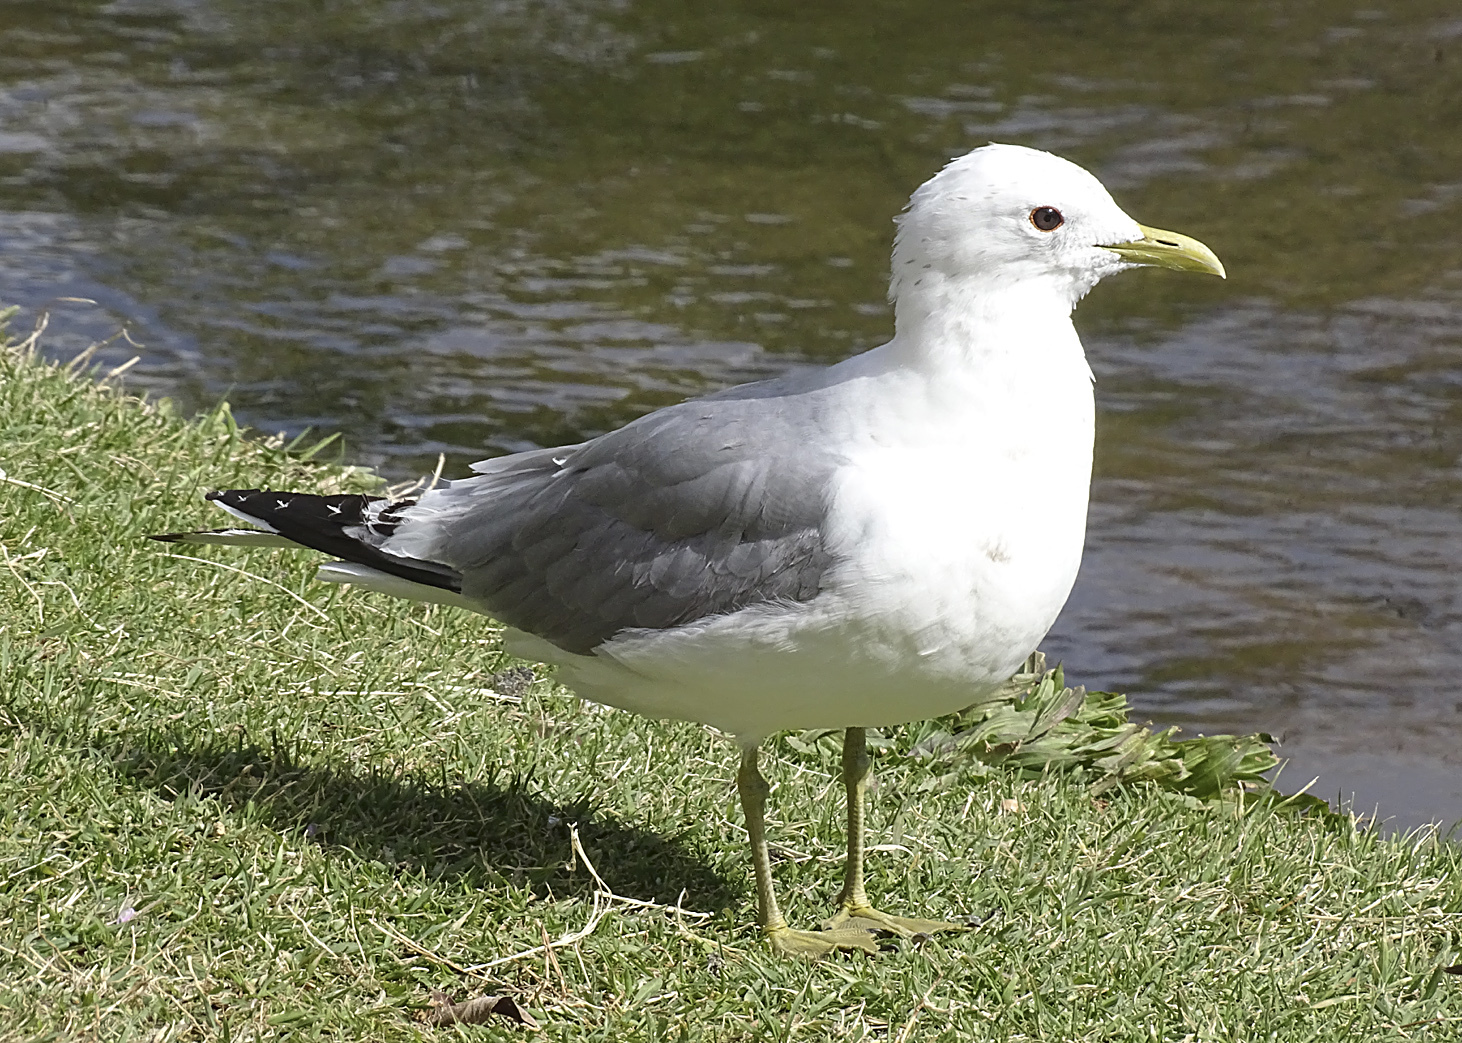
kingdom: Animalia
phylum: Chordata
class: Aves
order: Charadriiformes
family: Laridae
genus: Larus
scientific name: Larus brachyrhynchus
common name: Short-billed gull
